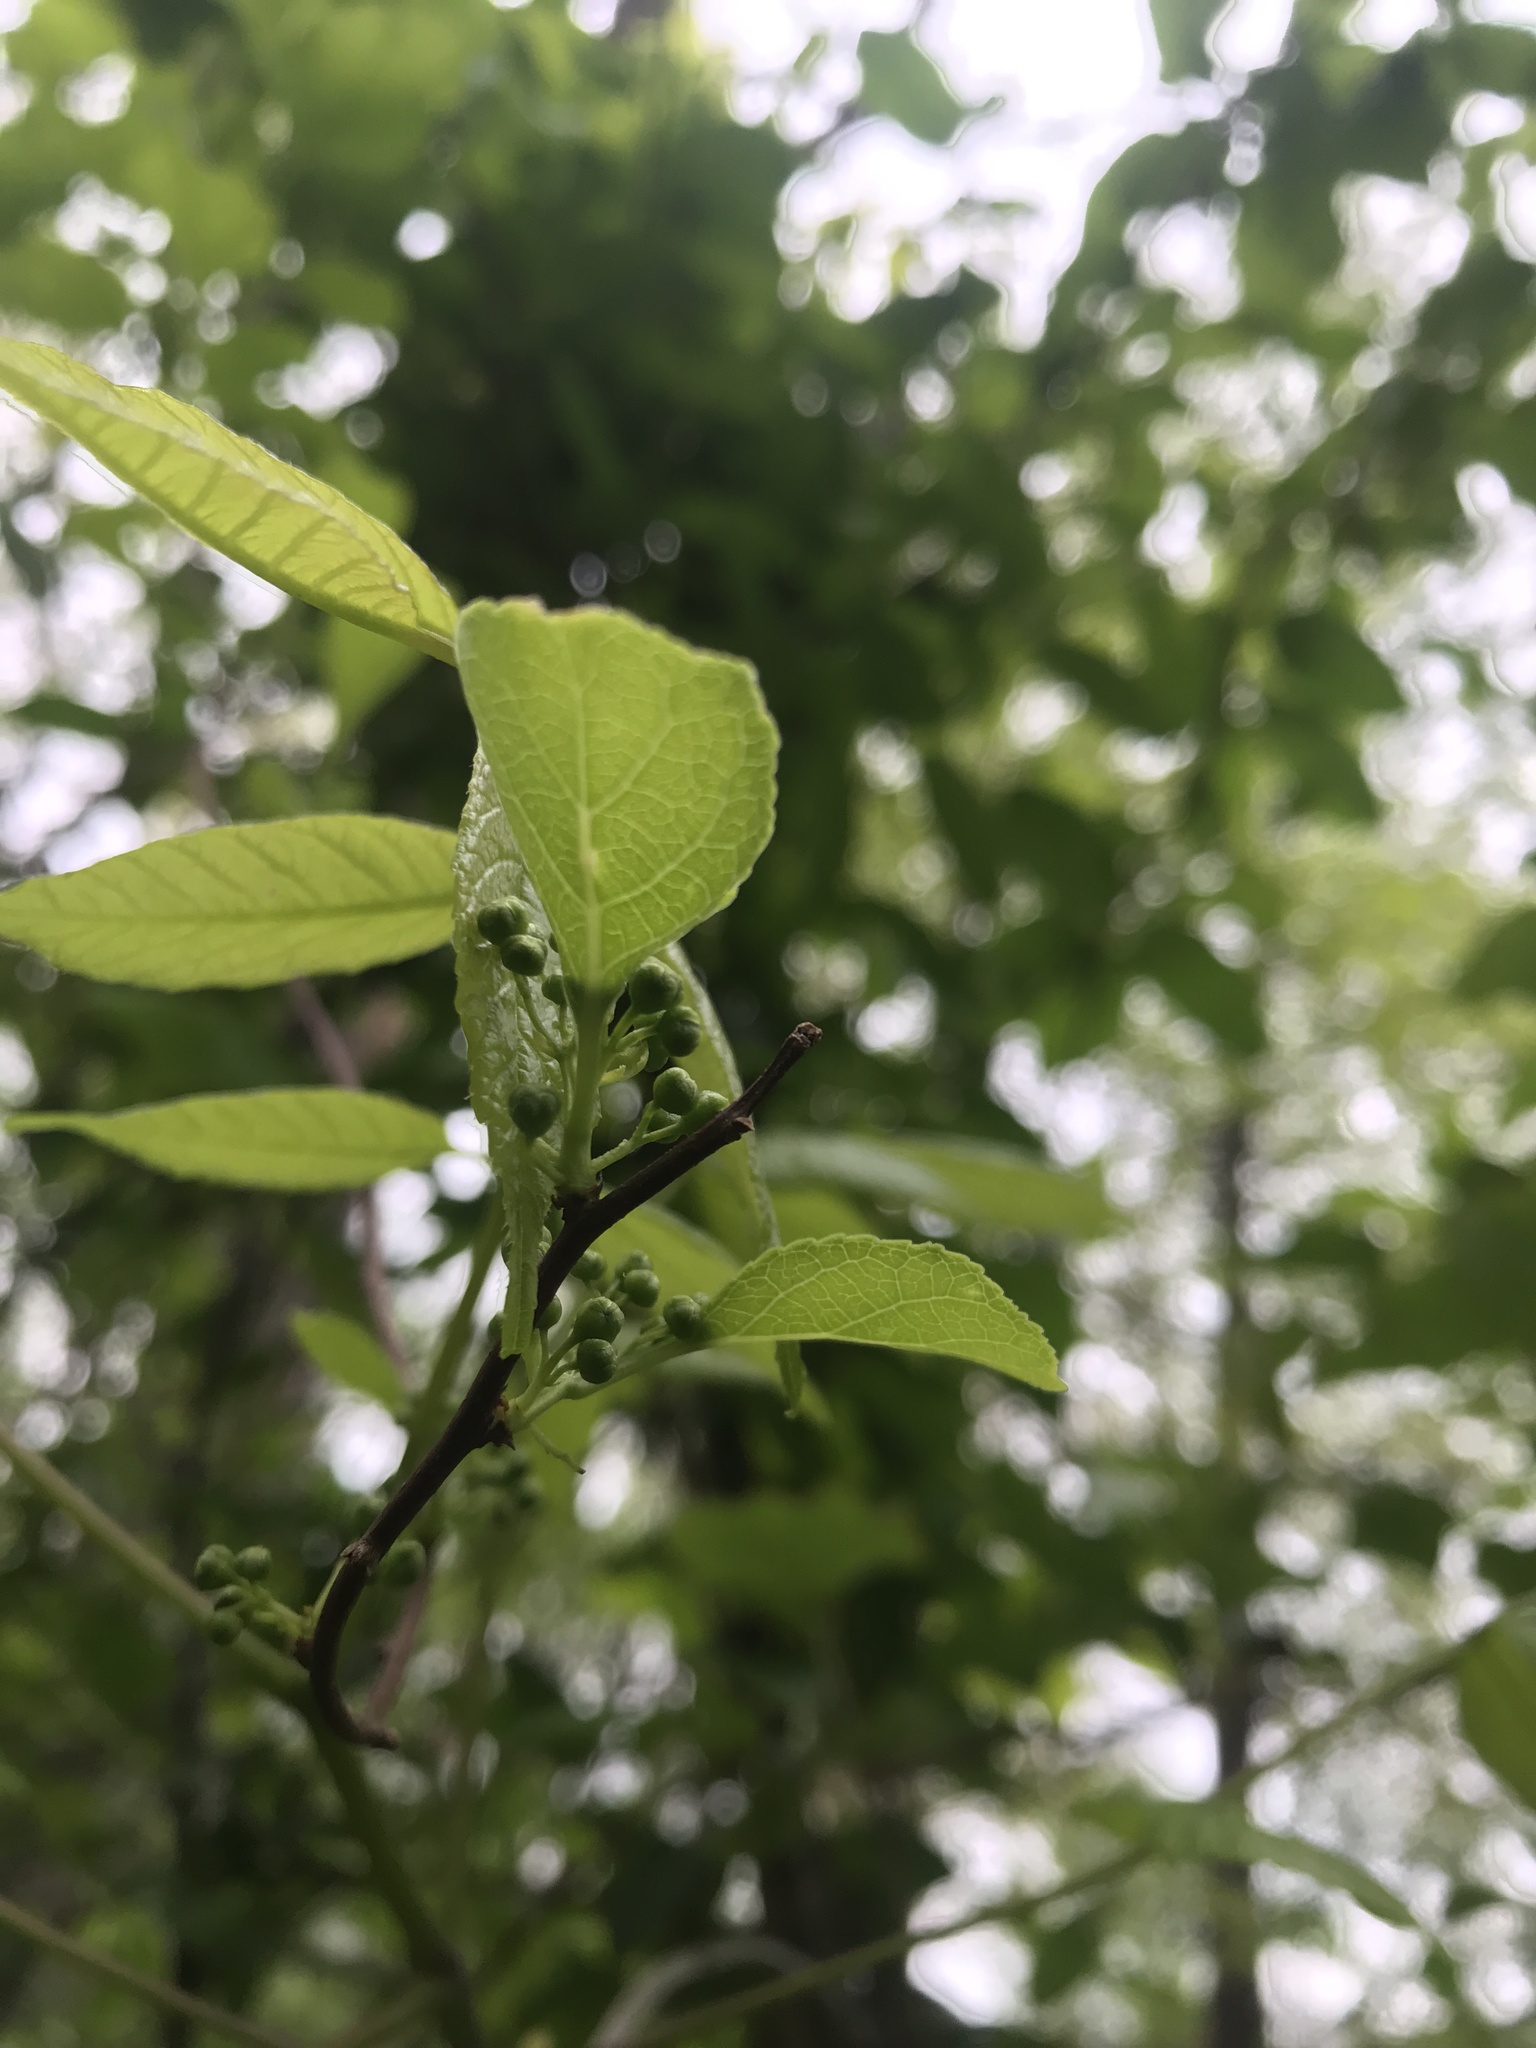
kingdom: Plantae
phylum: Tracheophyta
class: Magnoliopsida
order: Celastrales
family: Celastraceae
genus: Celastrus
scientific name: Celastrus orbiculatus
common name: Oriental bittersweet
